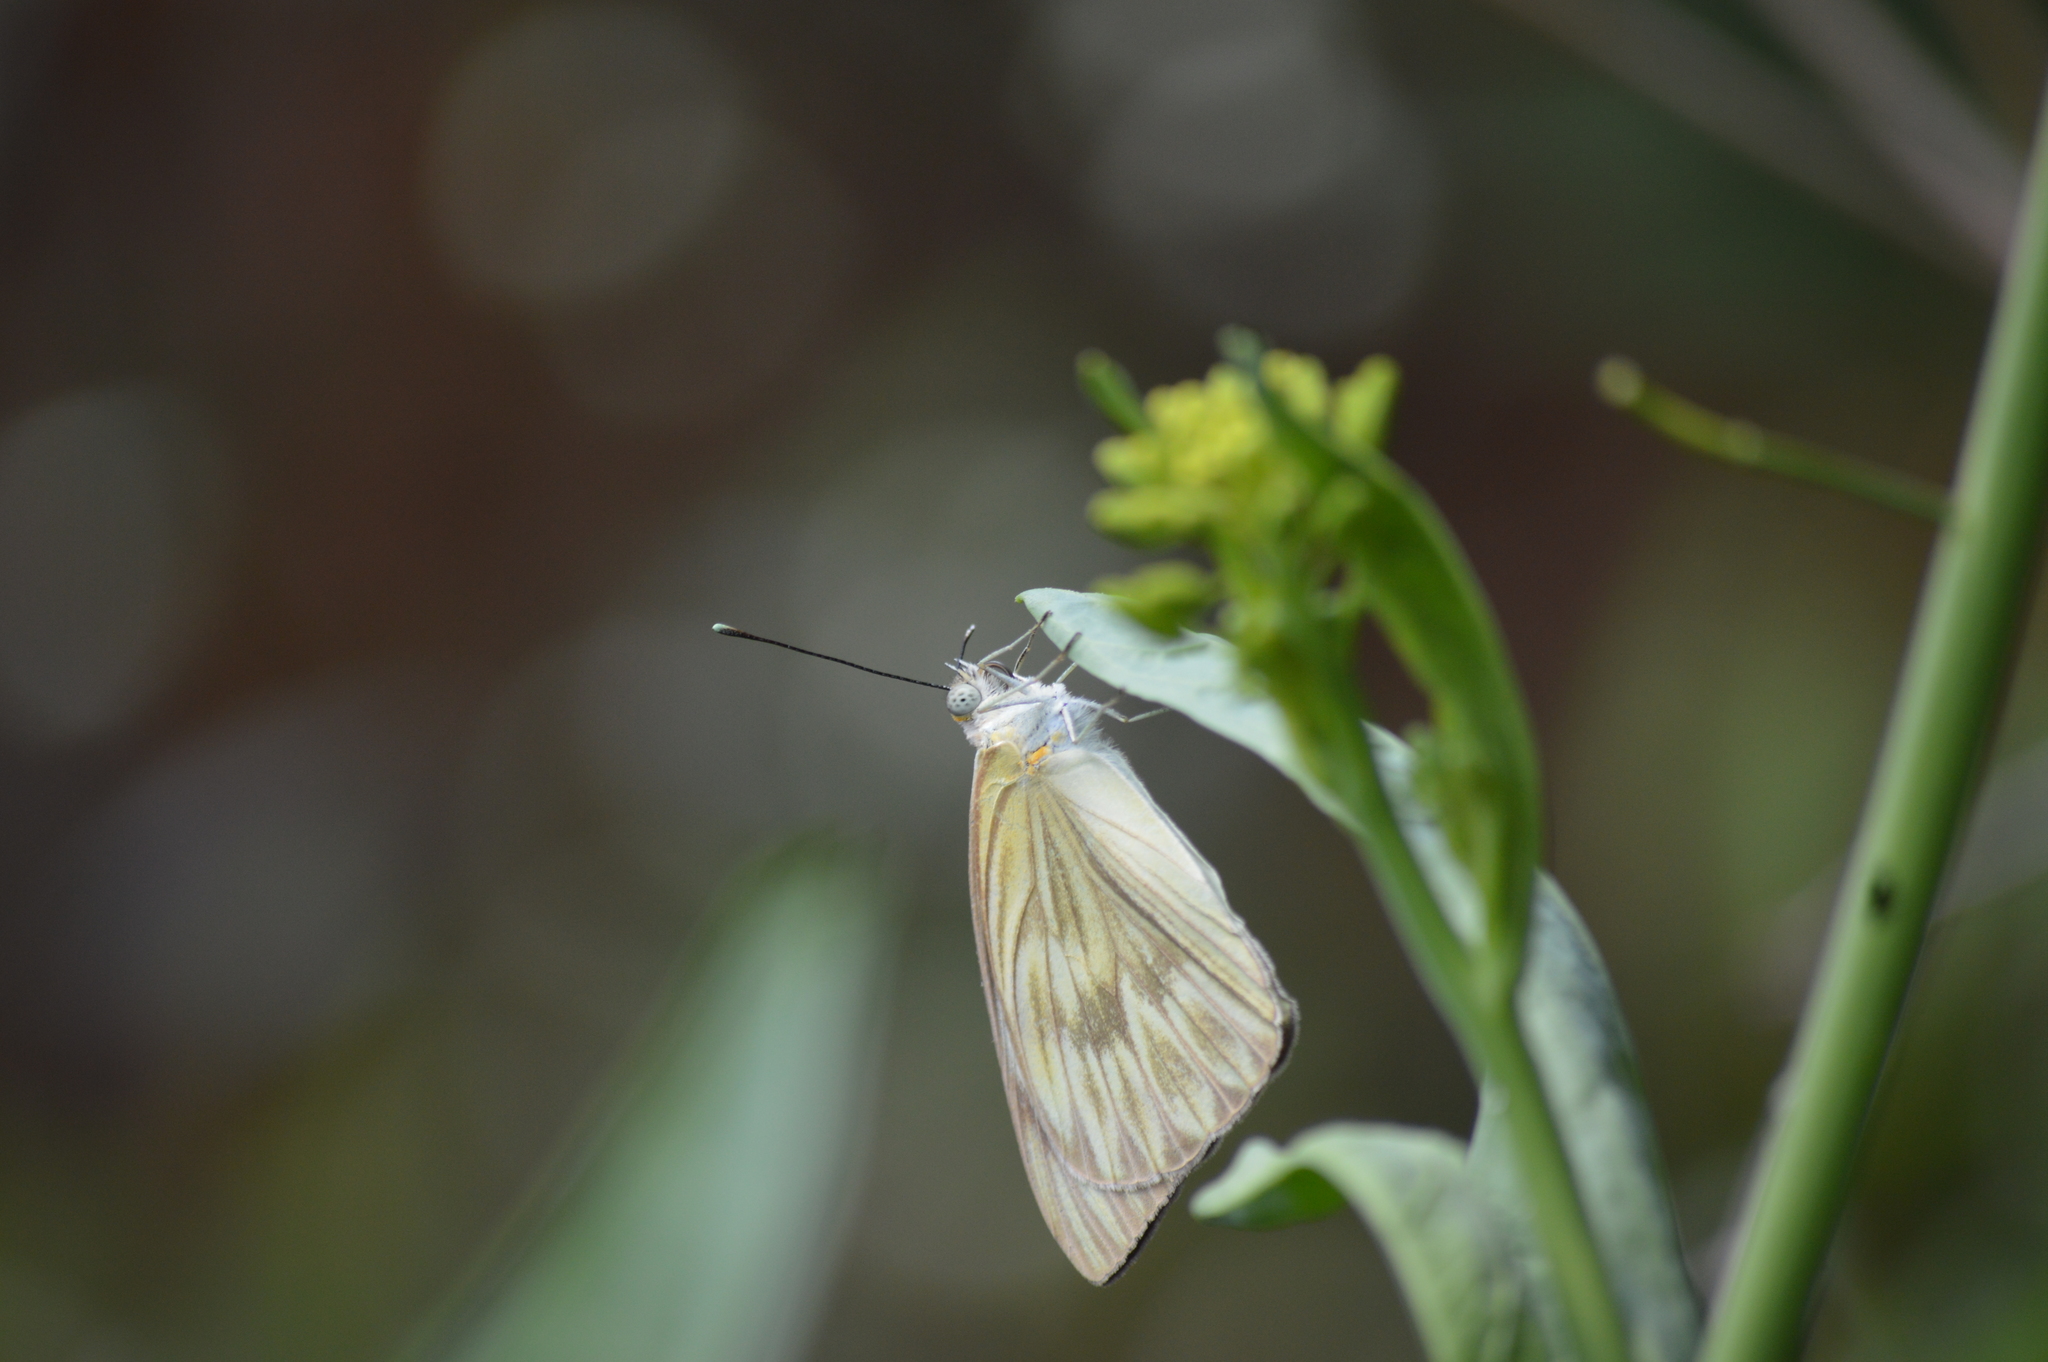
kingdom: Animalia
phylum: Arthropoda
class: Insecta
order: Lepidoptera
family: Pieridae
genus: Ascia
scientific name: Ascia monuste
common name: Great southern white
